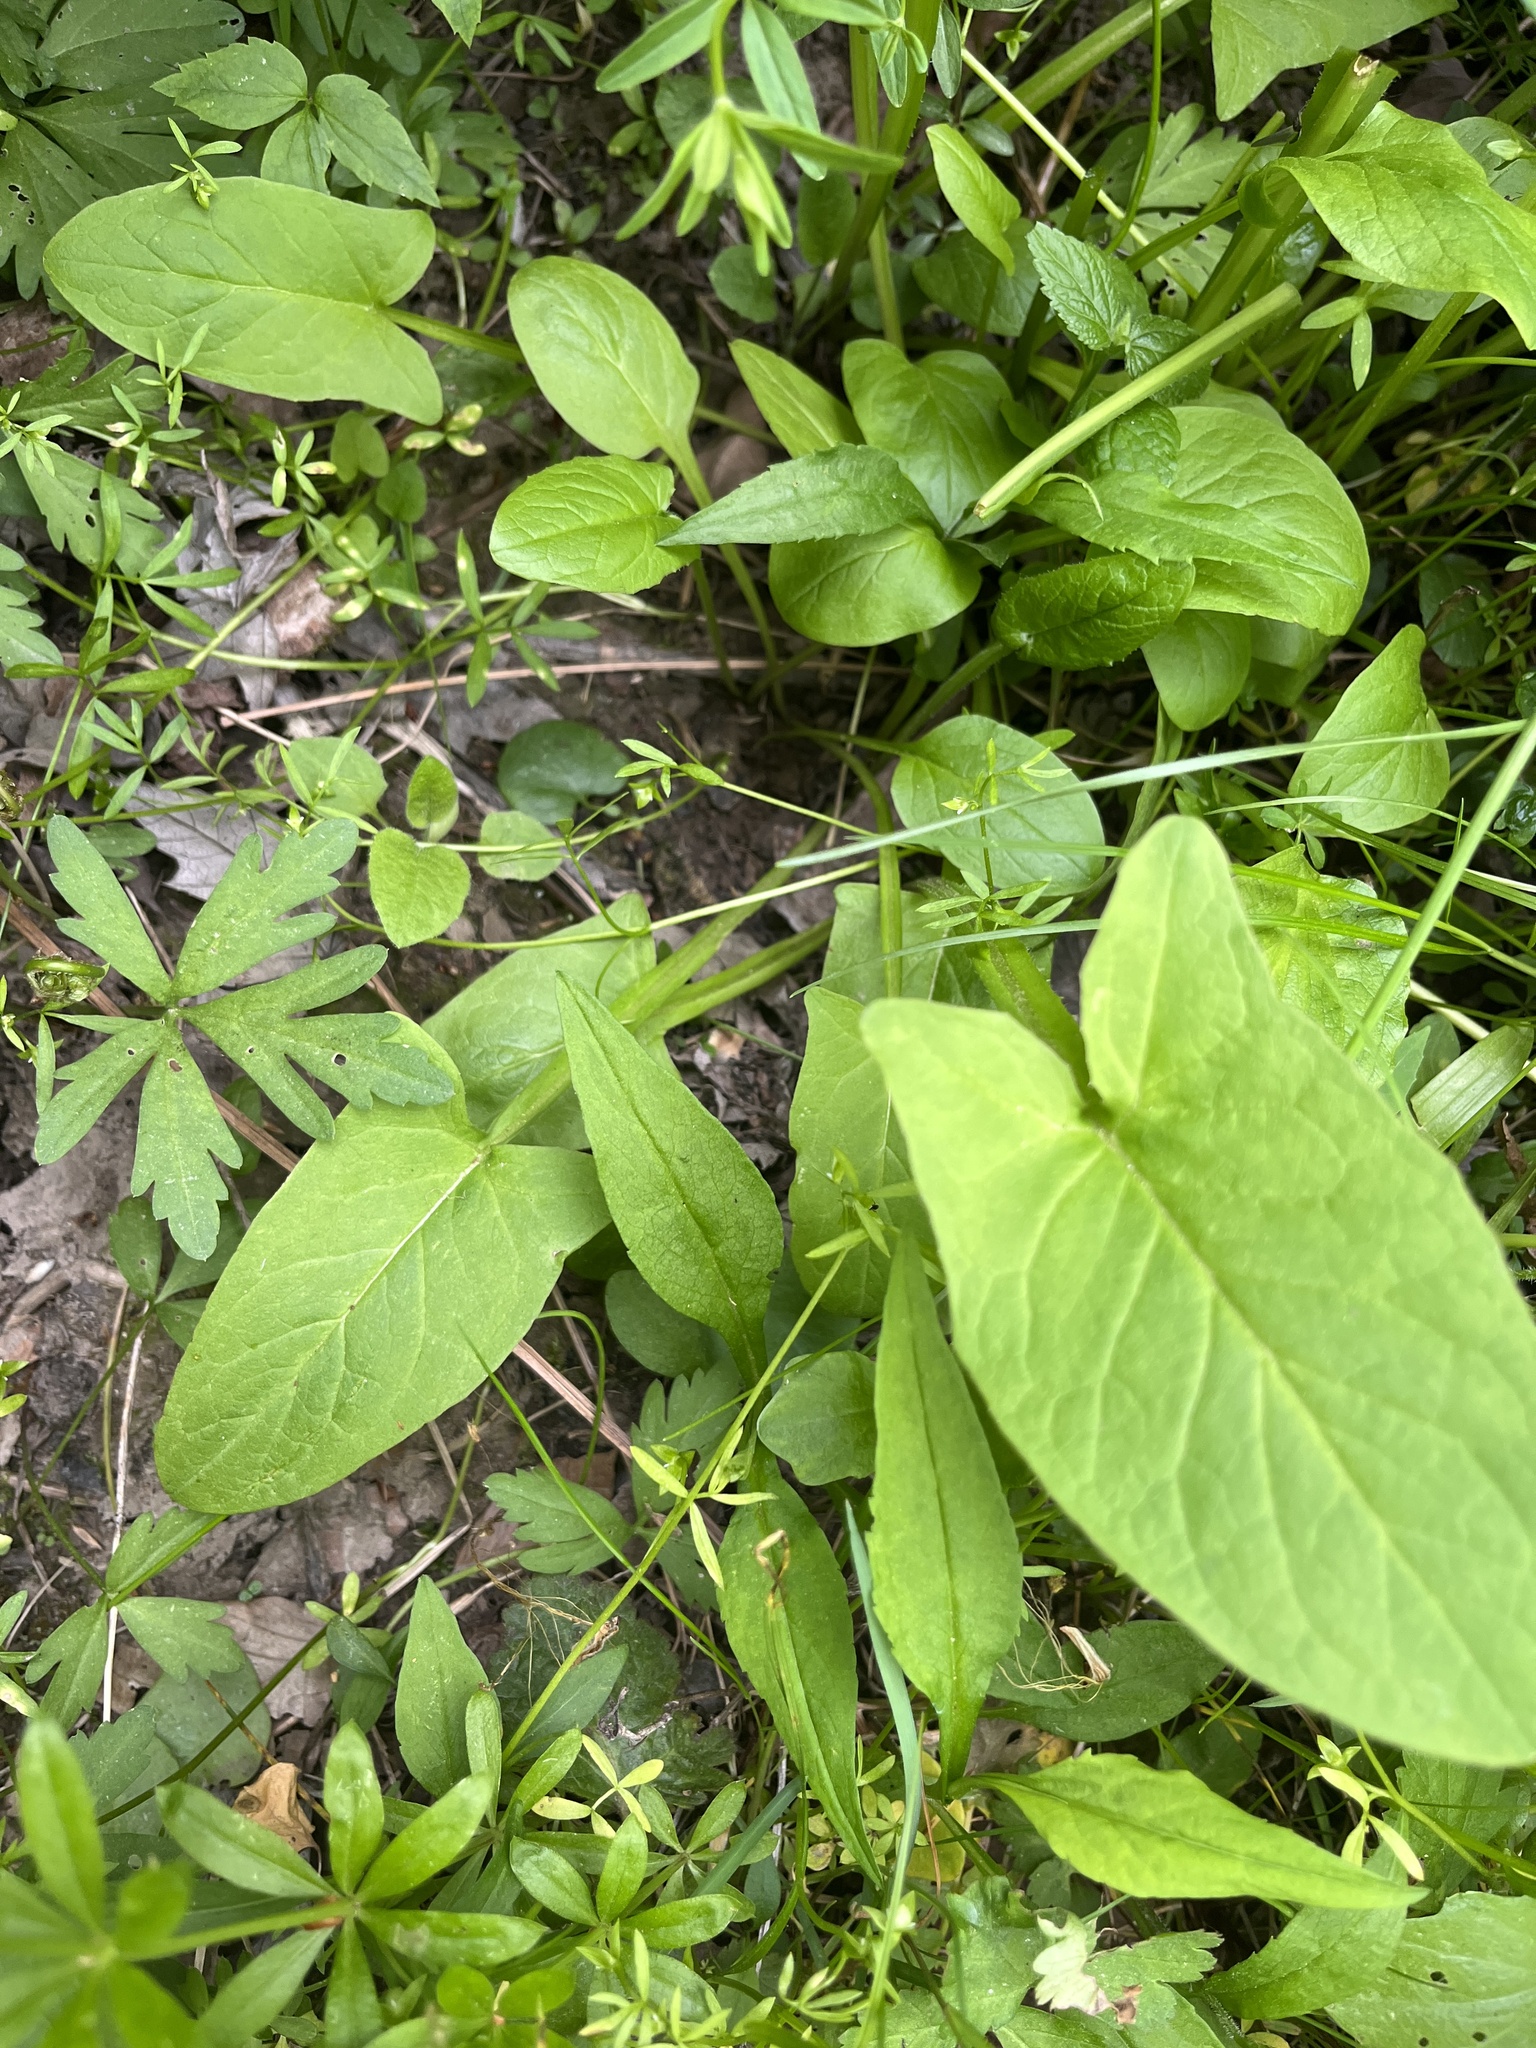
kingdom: Plantae
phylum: Tracheophyta
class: Magnoliopsida
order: Asterales
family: Asteraceae
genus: Nabalus
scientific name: Nabalus crepidineus
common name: Nodding rattlesnakeroot
